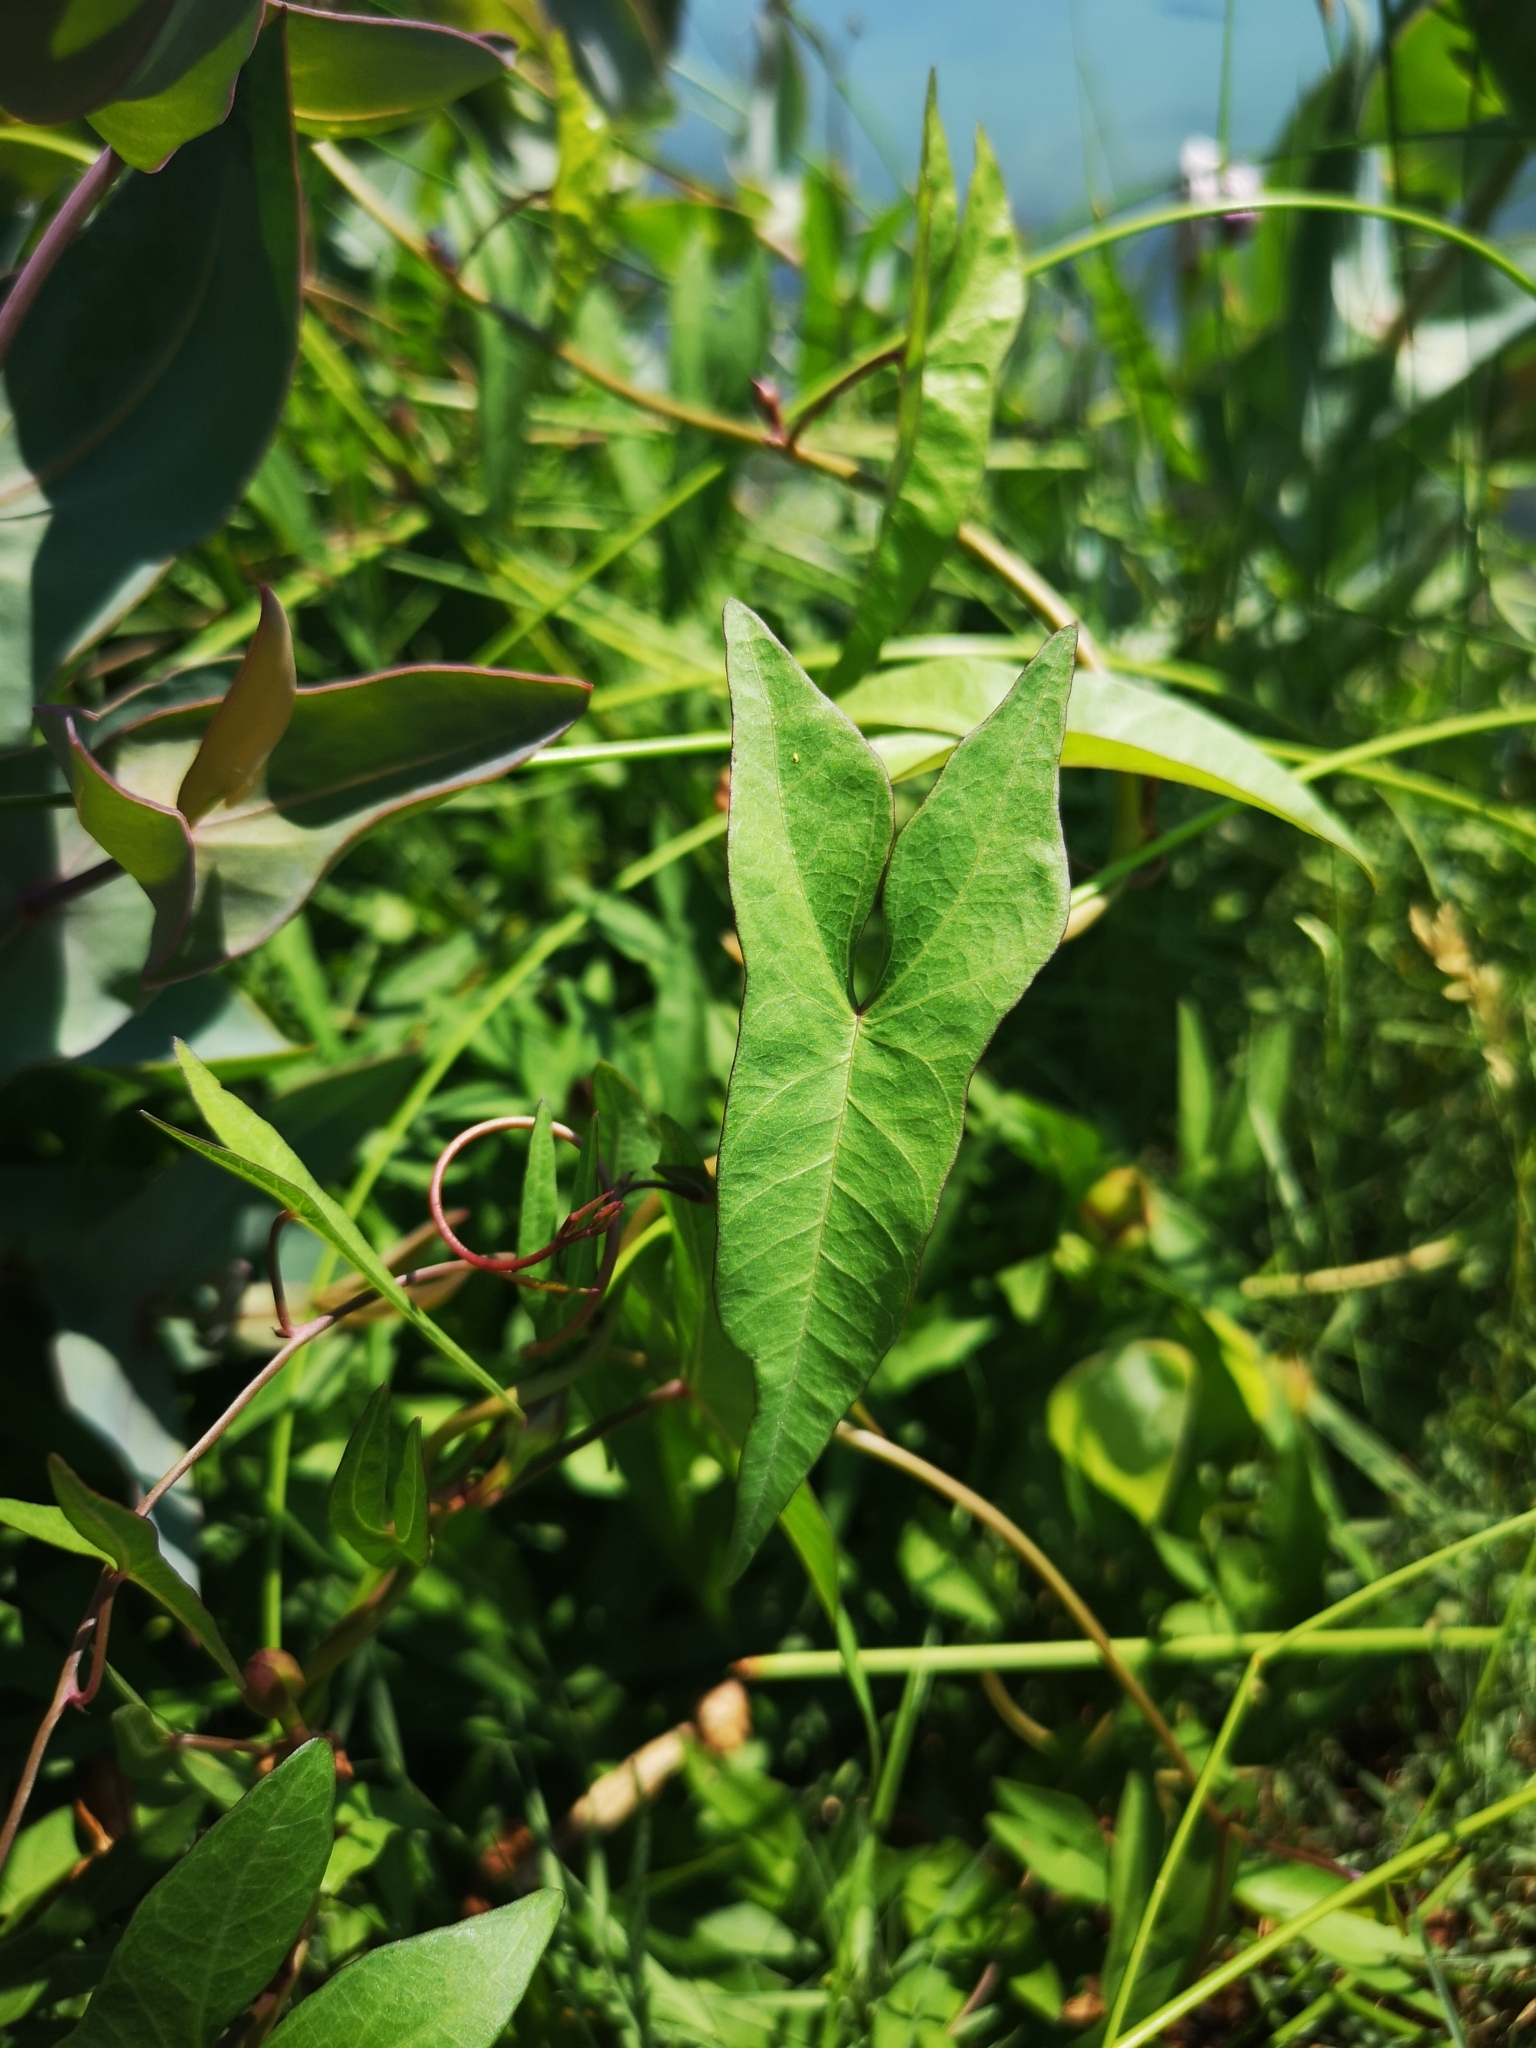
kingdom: Plantae
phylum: Tracheophyta
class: Magnoliopsida
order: Solanales
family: Convolvulaceae
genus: Ipomoea
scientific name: Ipomoea sagittata
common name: Saltmarsh morning glory
